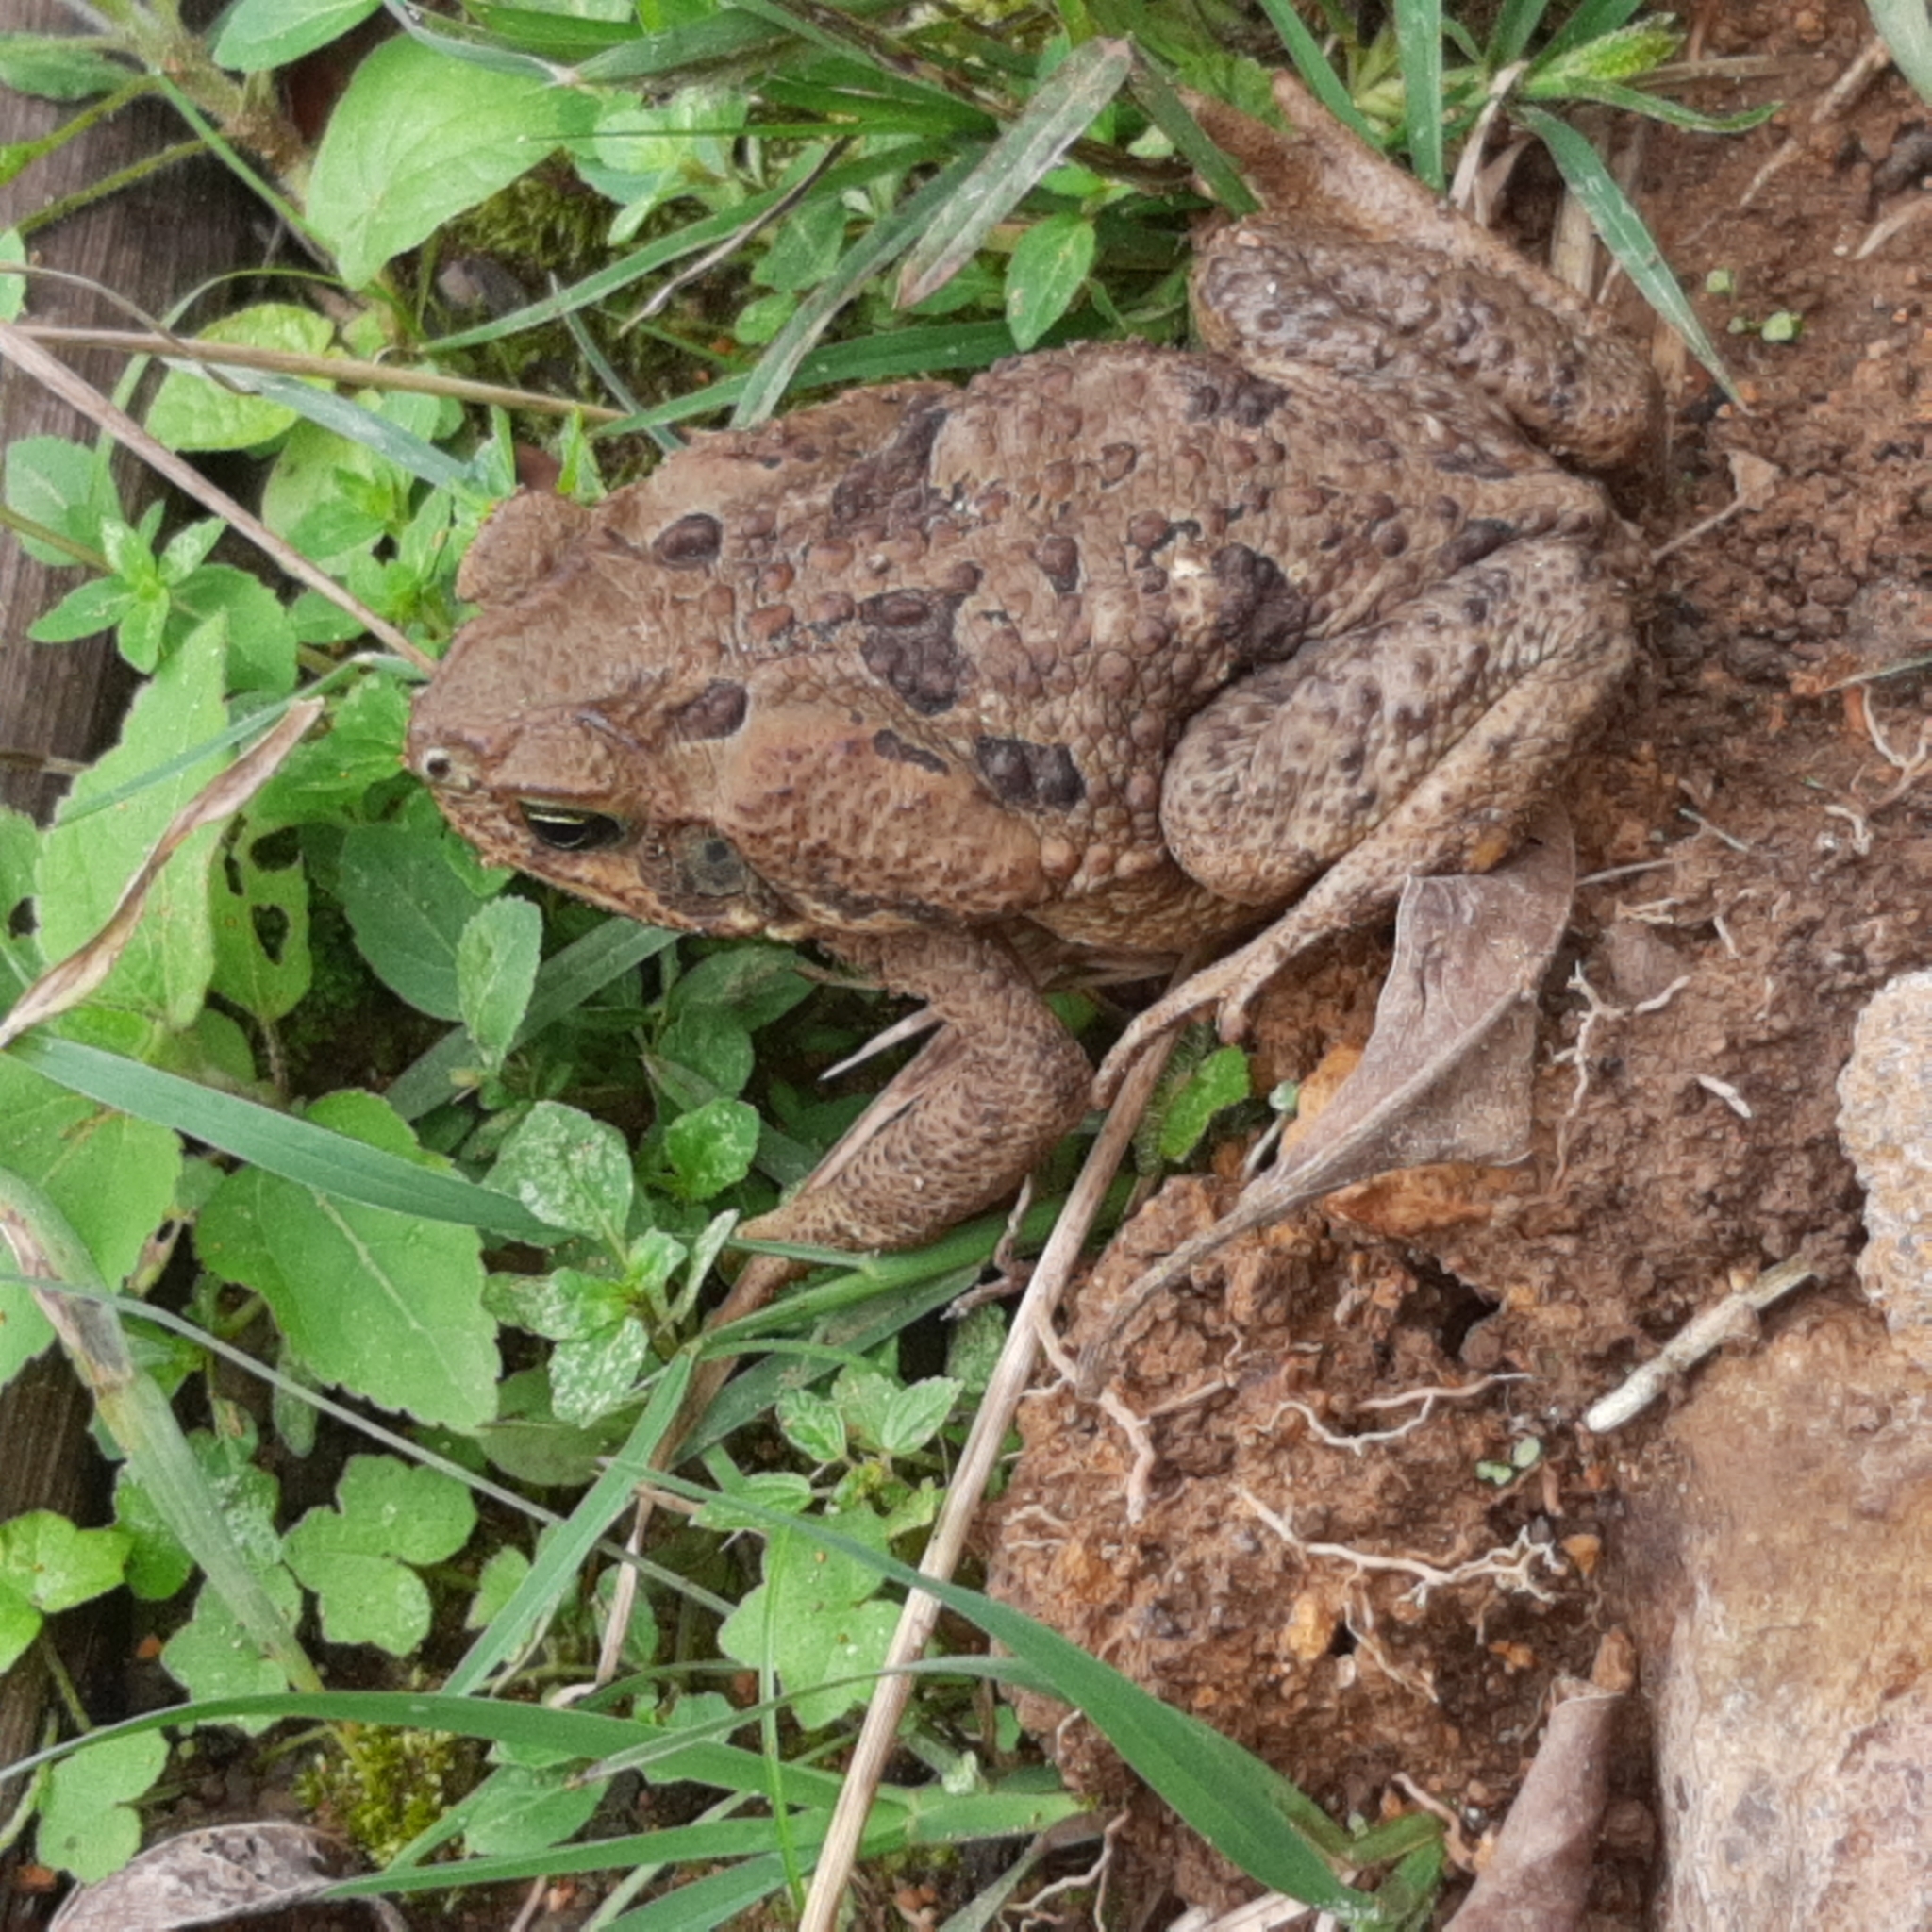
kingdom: Animalia
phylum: Chordata
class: Amphibia
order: Anura
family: Bufonidae
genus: Rhinella
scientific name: Rhinella horribilis
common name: Mesoamerican cane toad
